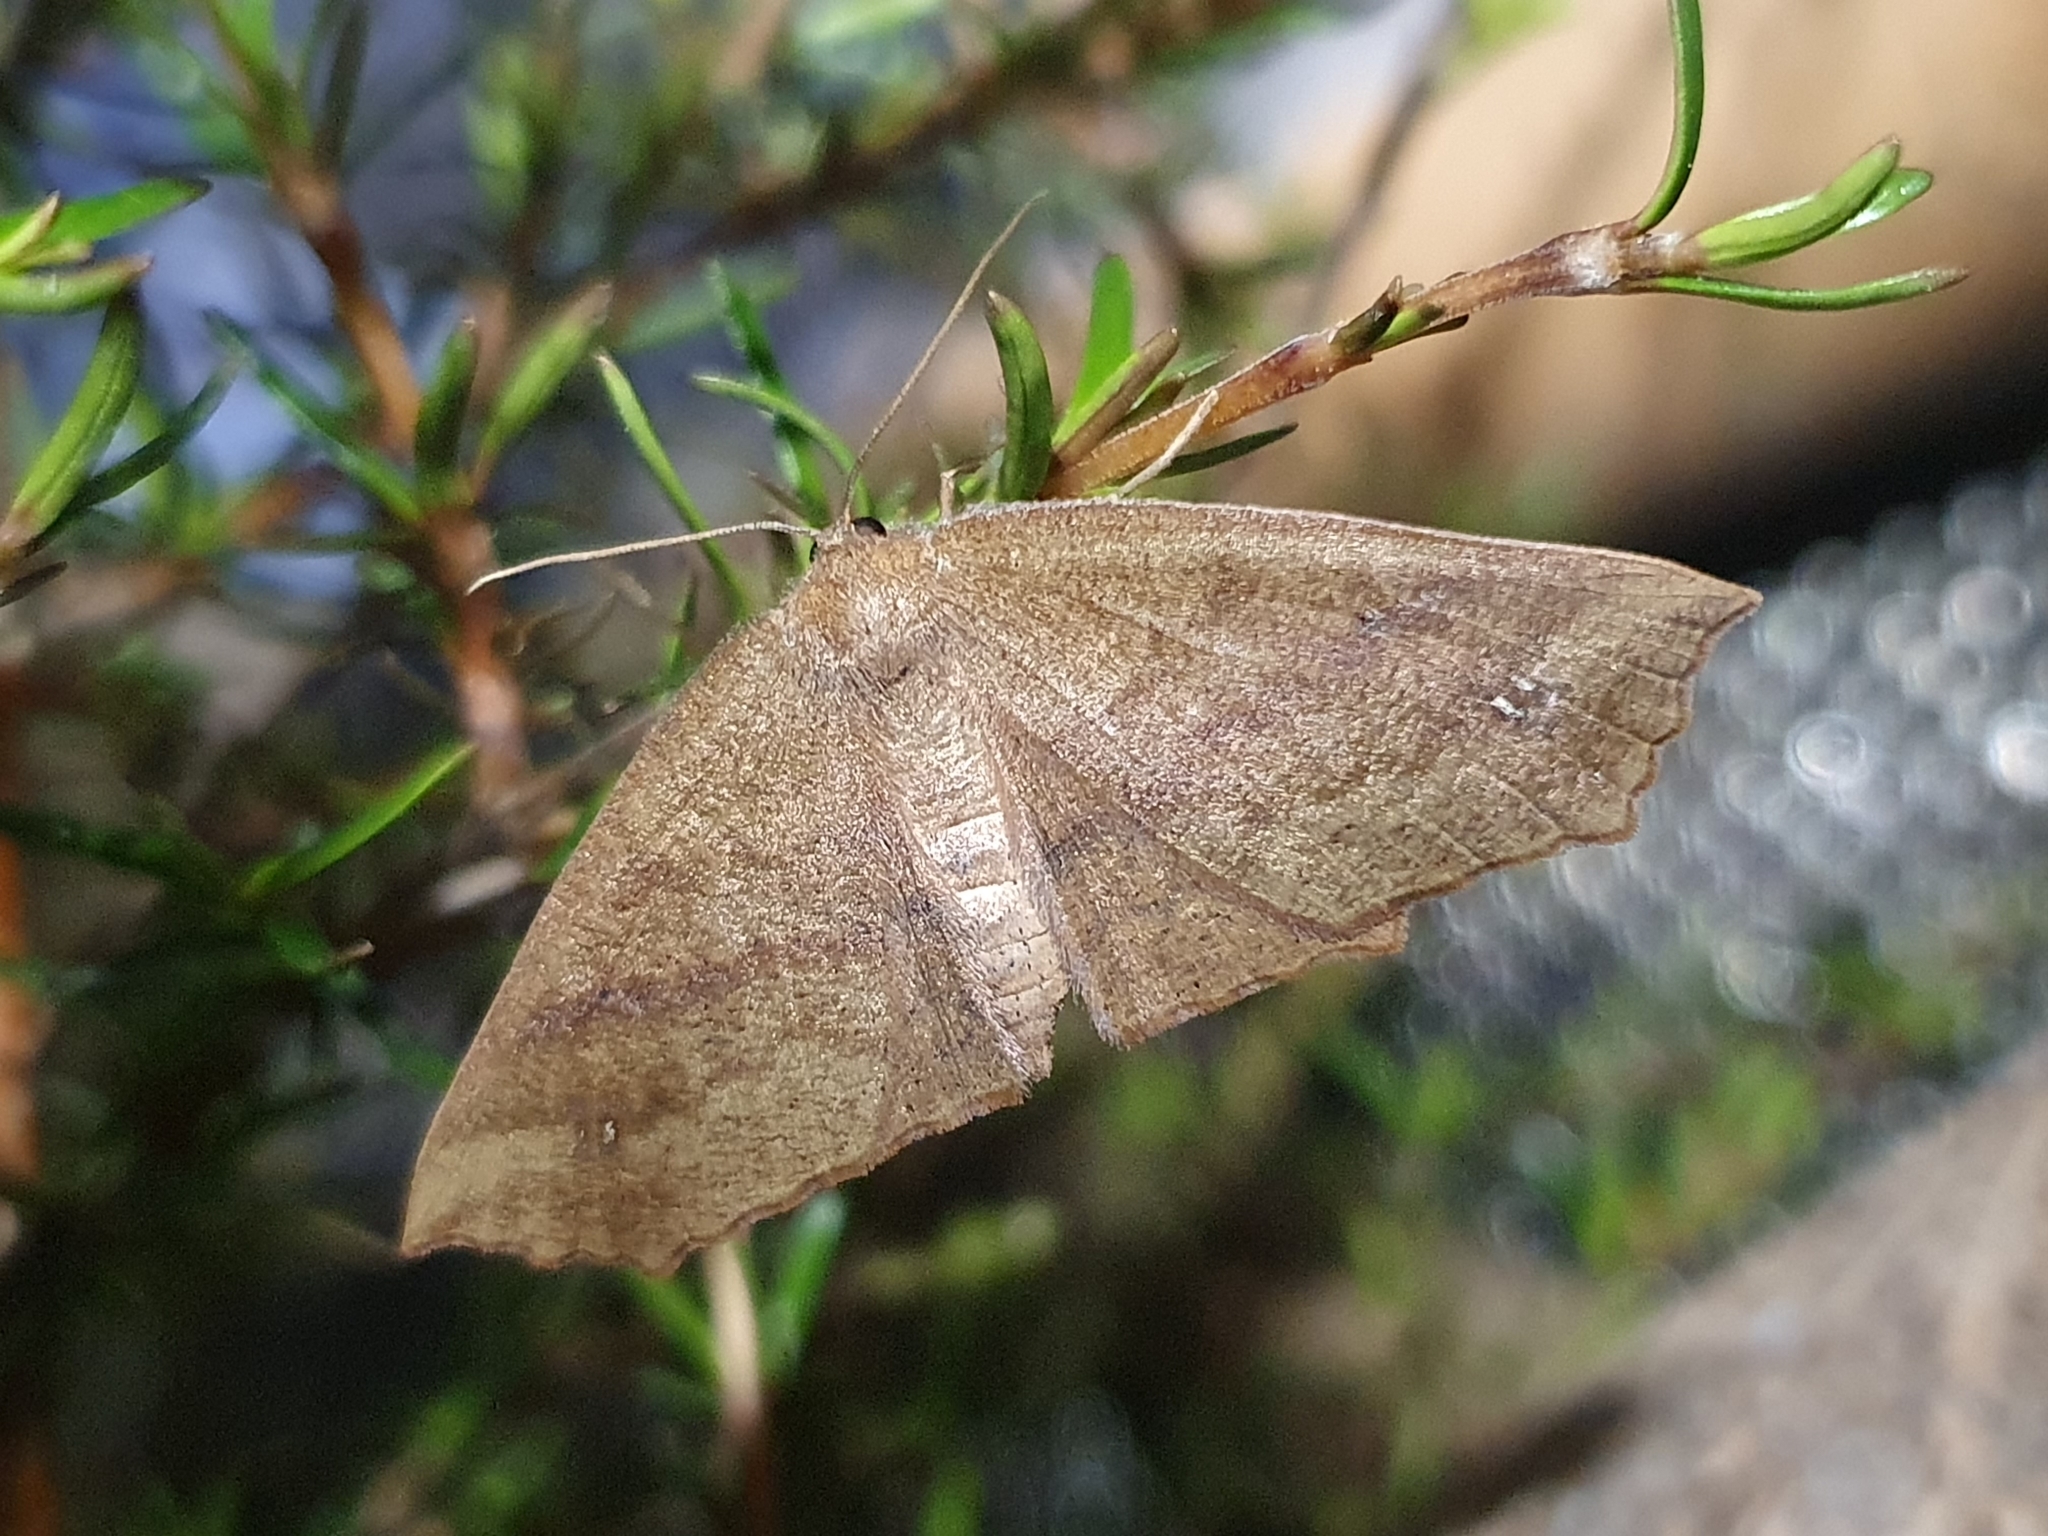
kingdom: Animalia
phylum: Arthropoda
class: Insecta
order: Lepidoptera
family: Geometridae
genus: Xyridacma
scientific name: Xyridacma ustaria
